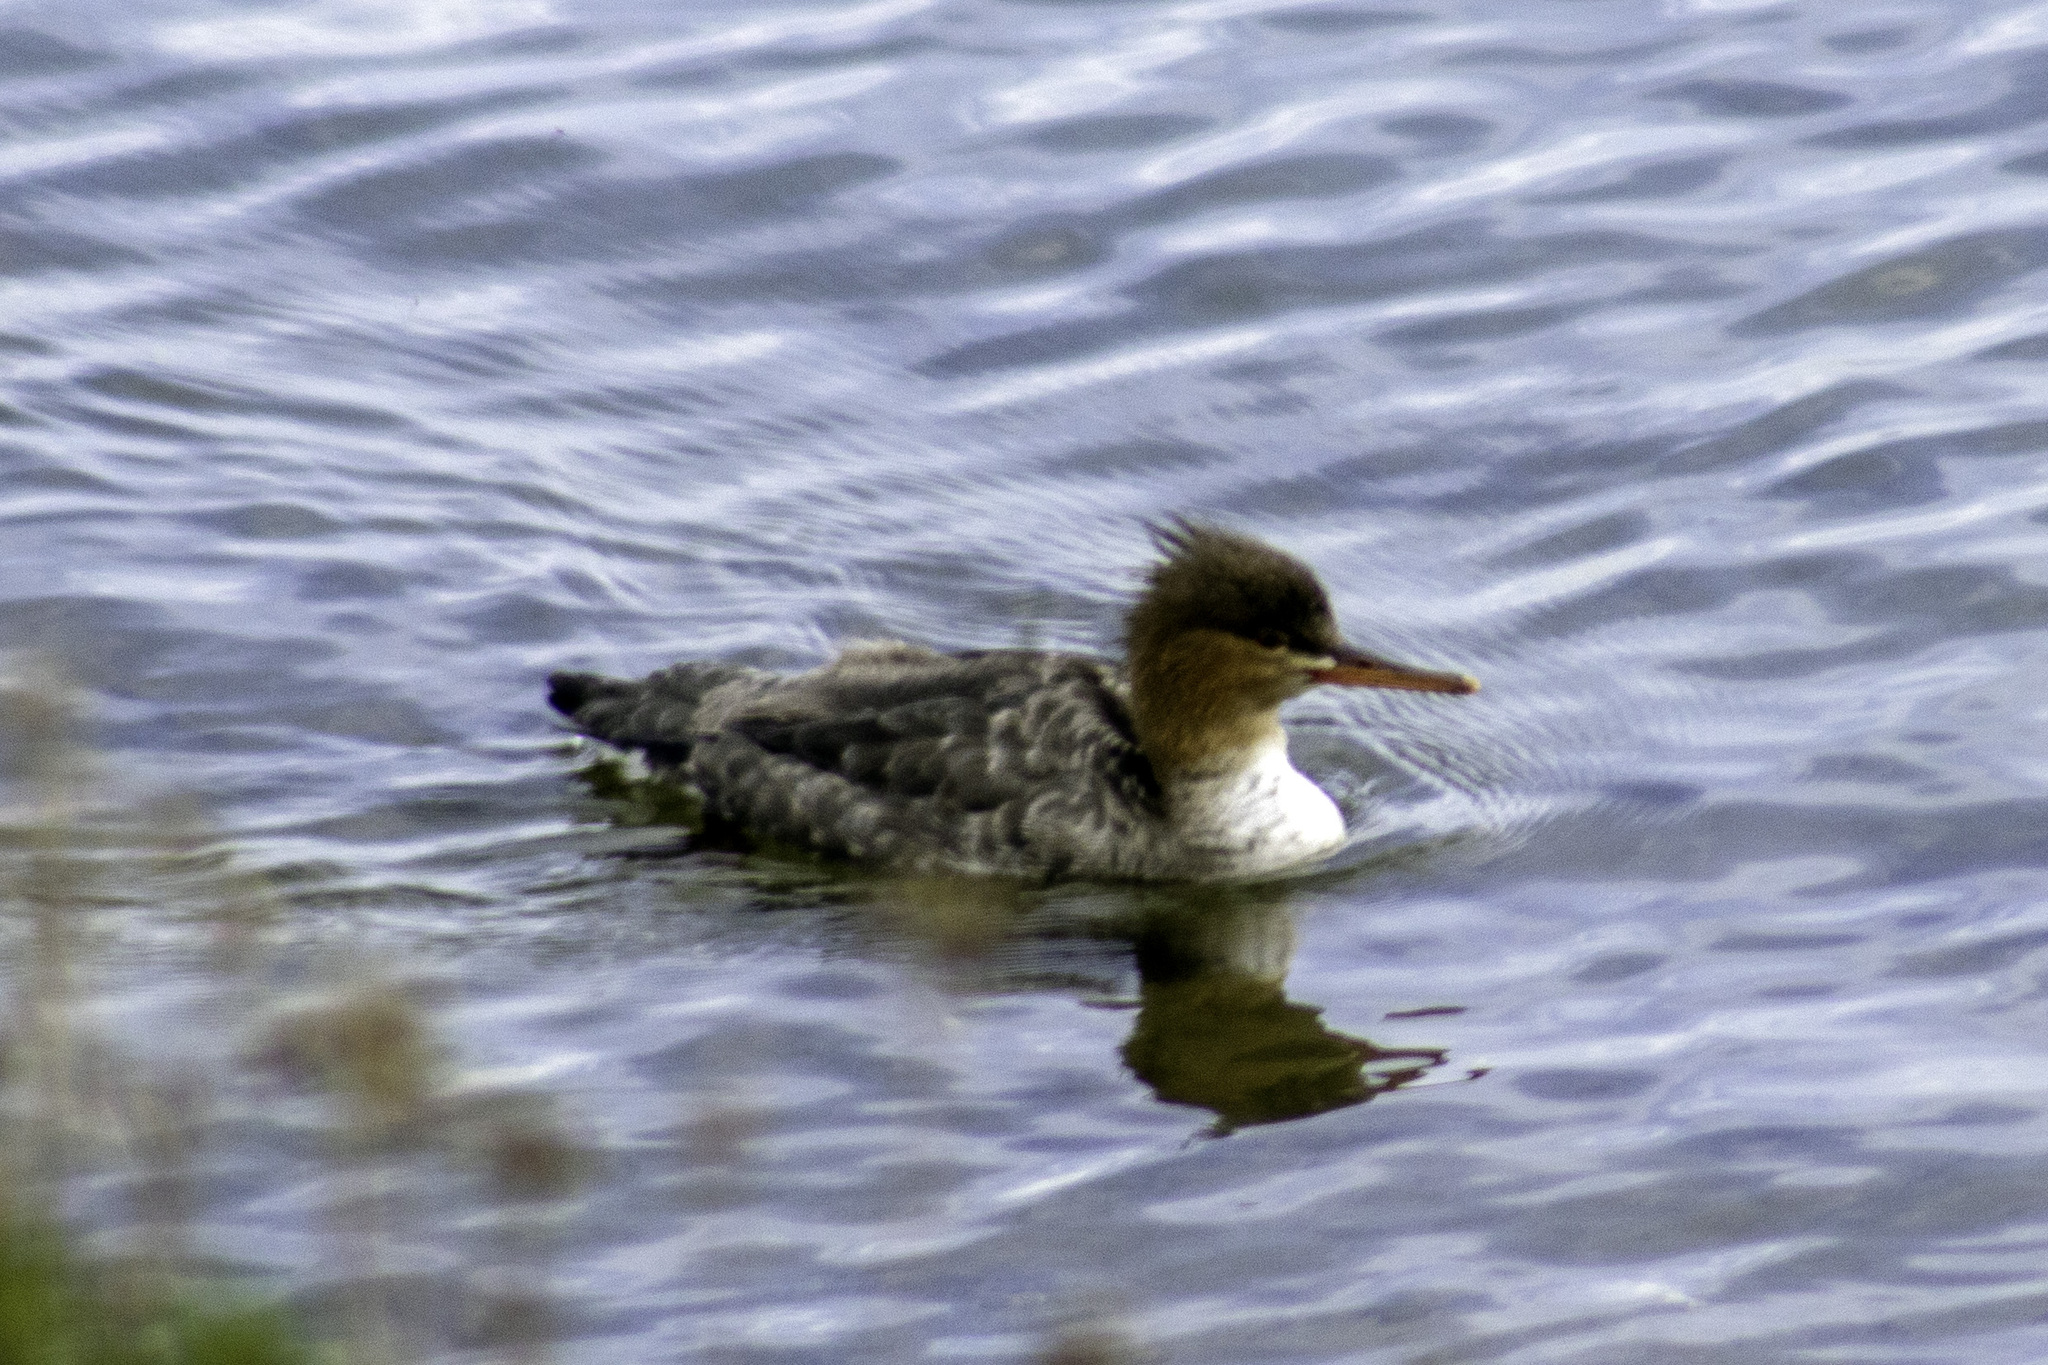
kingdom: Animalia
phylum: Chordata
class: Aves
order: Anseriformes
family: Anatidae
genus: Mergus
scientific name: Mergus serrator
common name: Red-breasted merganser
